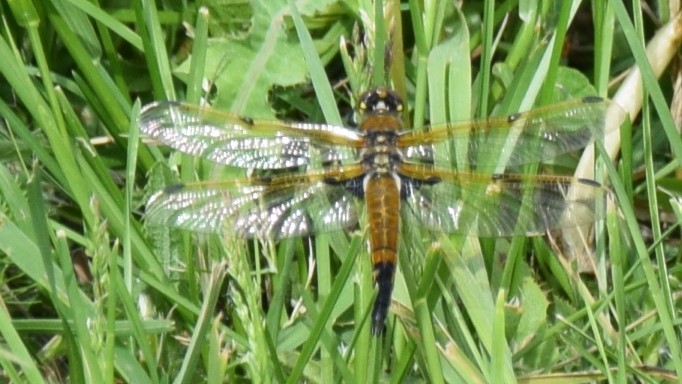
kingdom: Animalia
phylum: Arthropoda
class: Insecta
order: Odonata
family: Libellulidae
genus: Libellula
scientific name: Libellula quadrimaculata
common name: Four-spotted chaser
